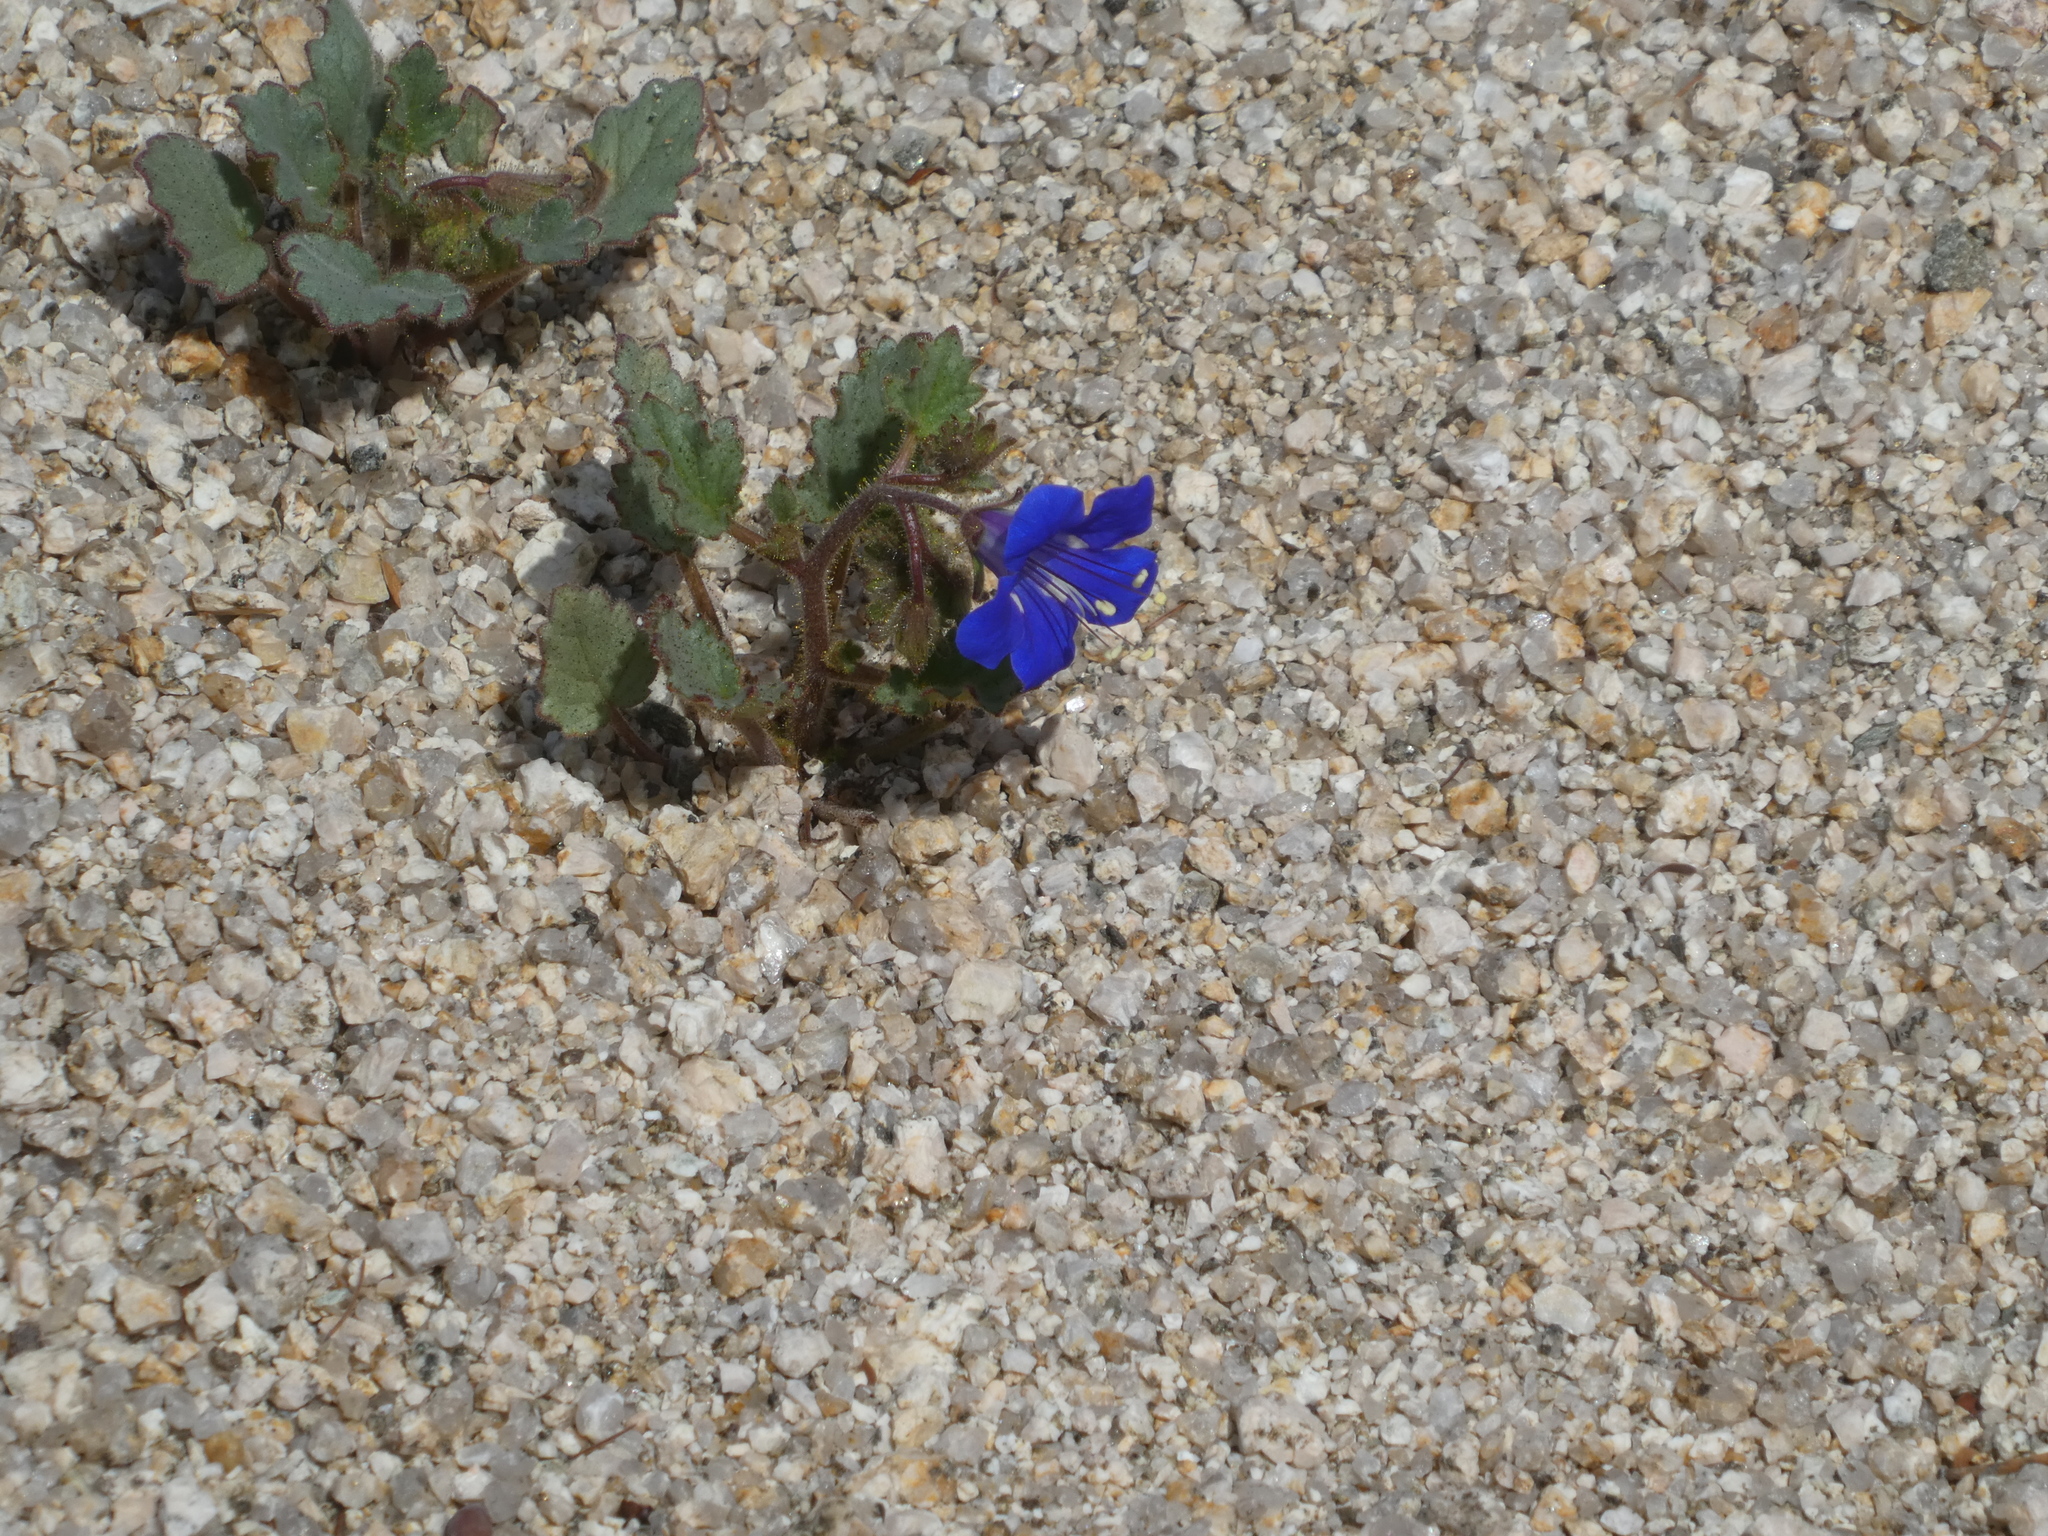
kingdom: Plantae
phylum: Tracheophyta
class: Magnoliopsida
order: Boraginales
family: Hydrophyllaceae
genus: Phacelia
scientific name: Phacelia campanularia
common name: California bluebell
